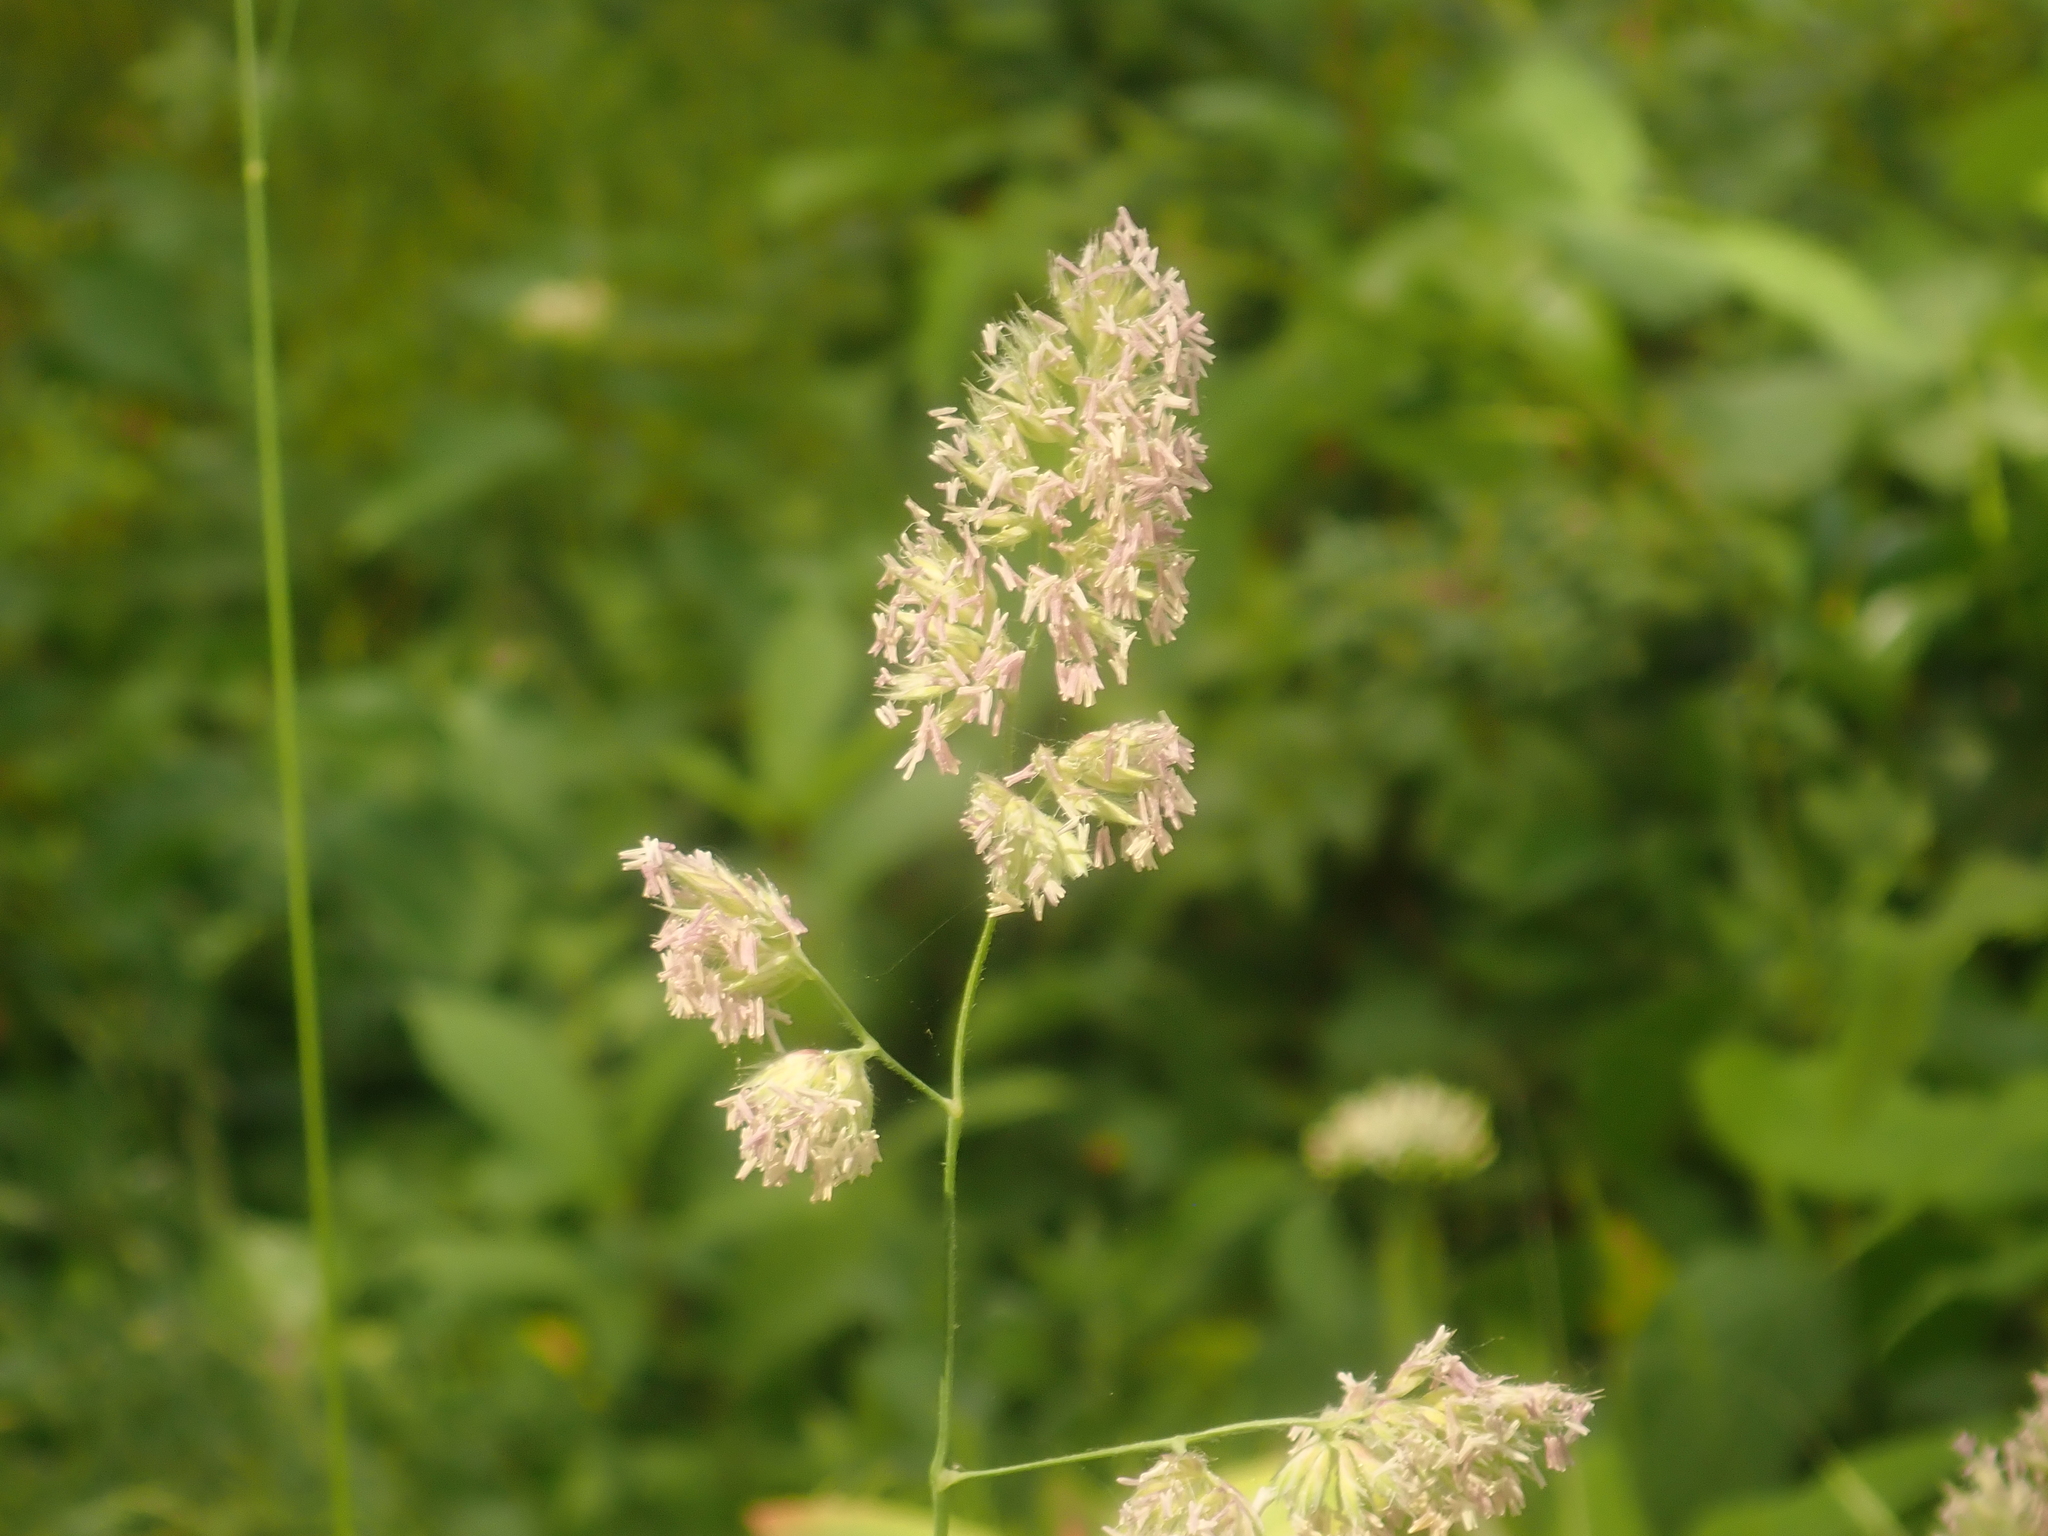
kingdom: Plantae
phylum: Tracheophyta
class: Liliopsida
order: Poales
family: Poaceae
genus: Dactylis
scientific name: Dactylis glomerata
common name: Orchardgrass
